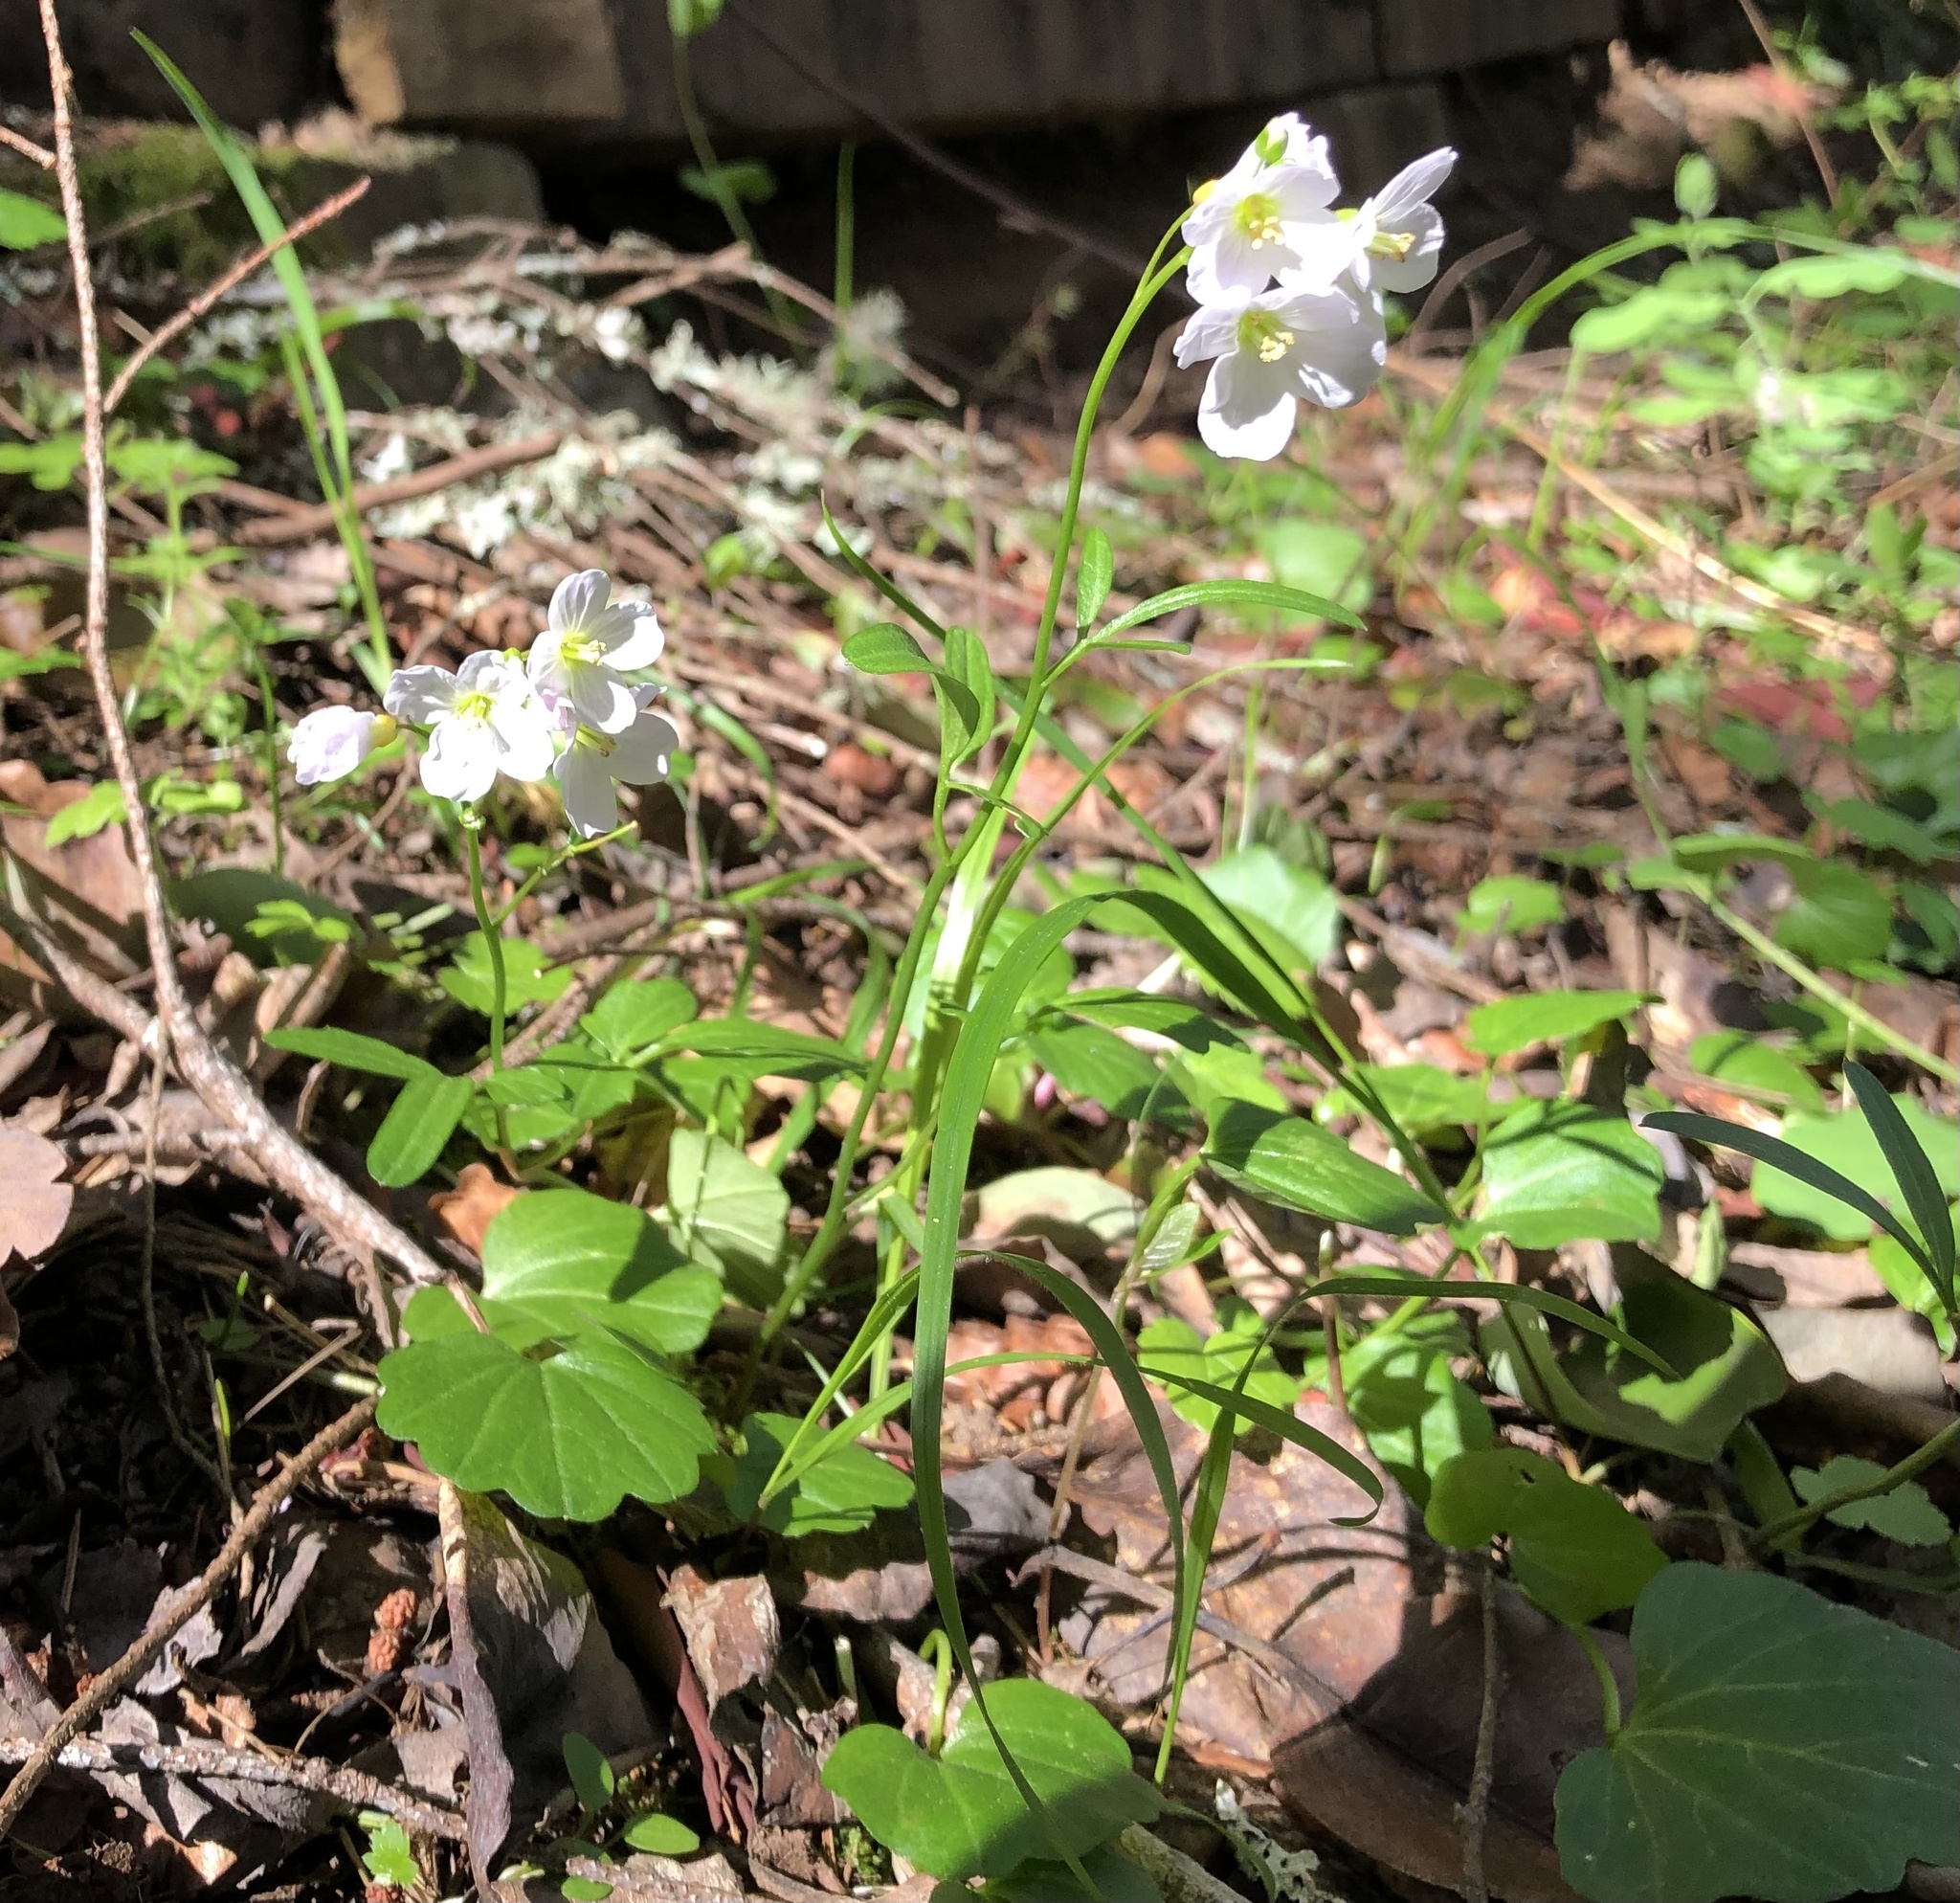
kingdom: Plantae
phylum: Tracheophyta
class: Magnoliopsida
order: Brassicales
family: Brassicaceae
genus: Cardamine
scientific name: Cardamine nuttallii
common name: Nuttall's toothwort
